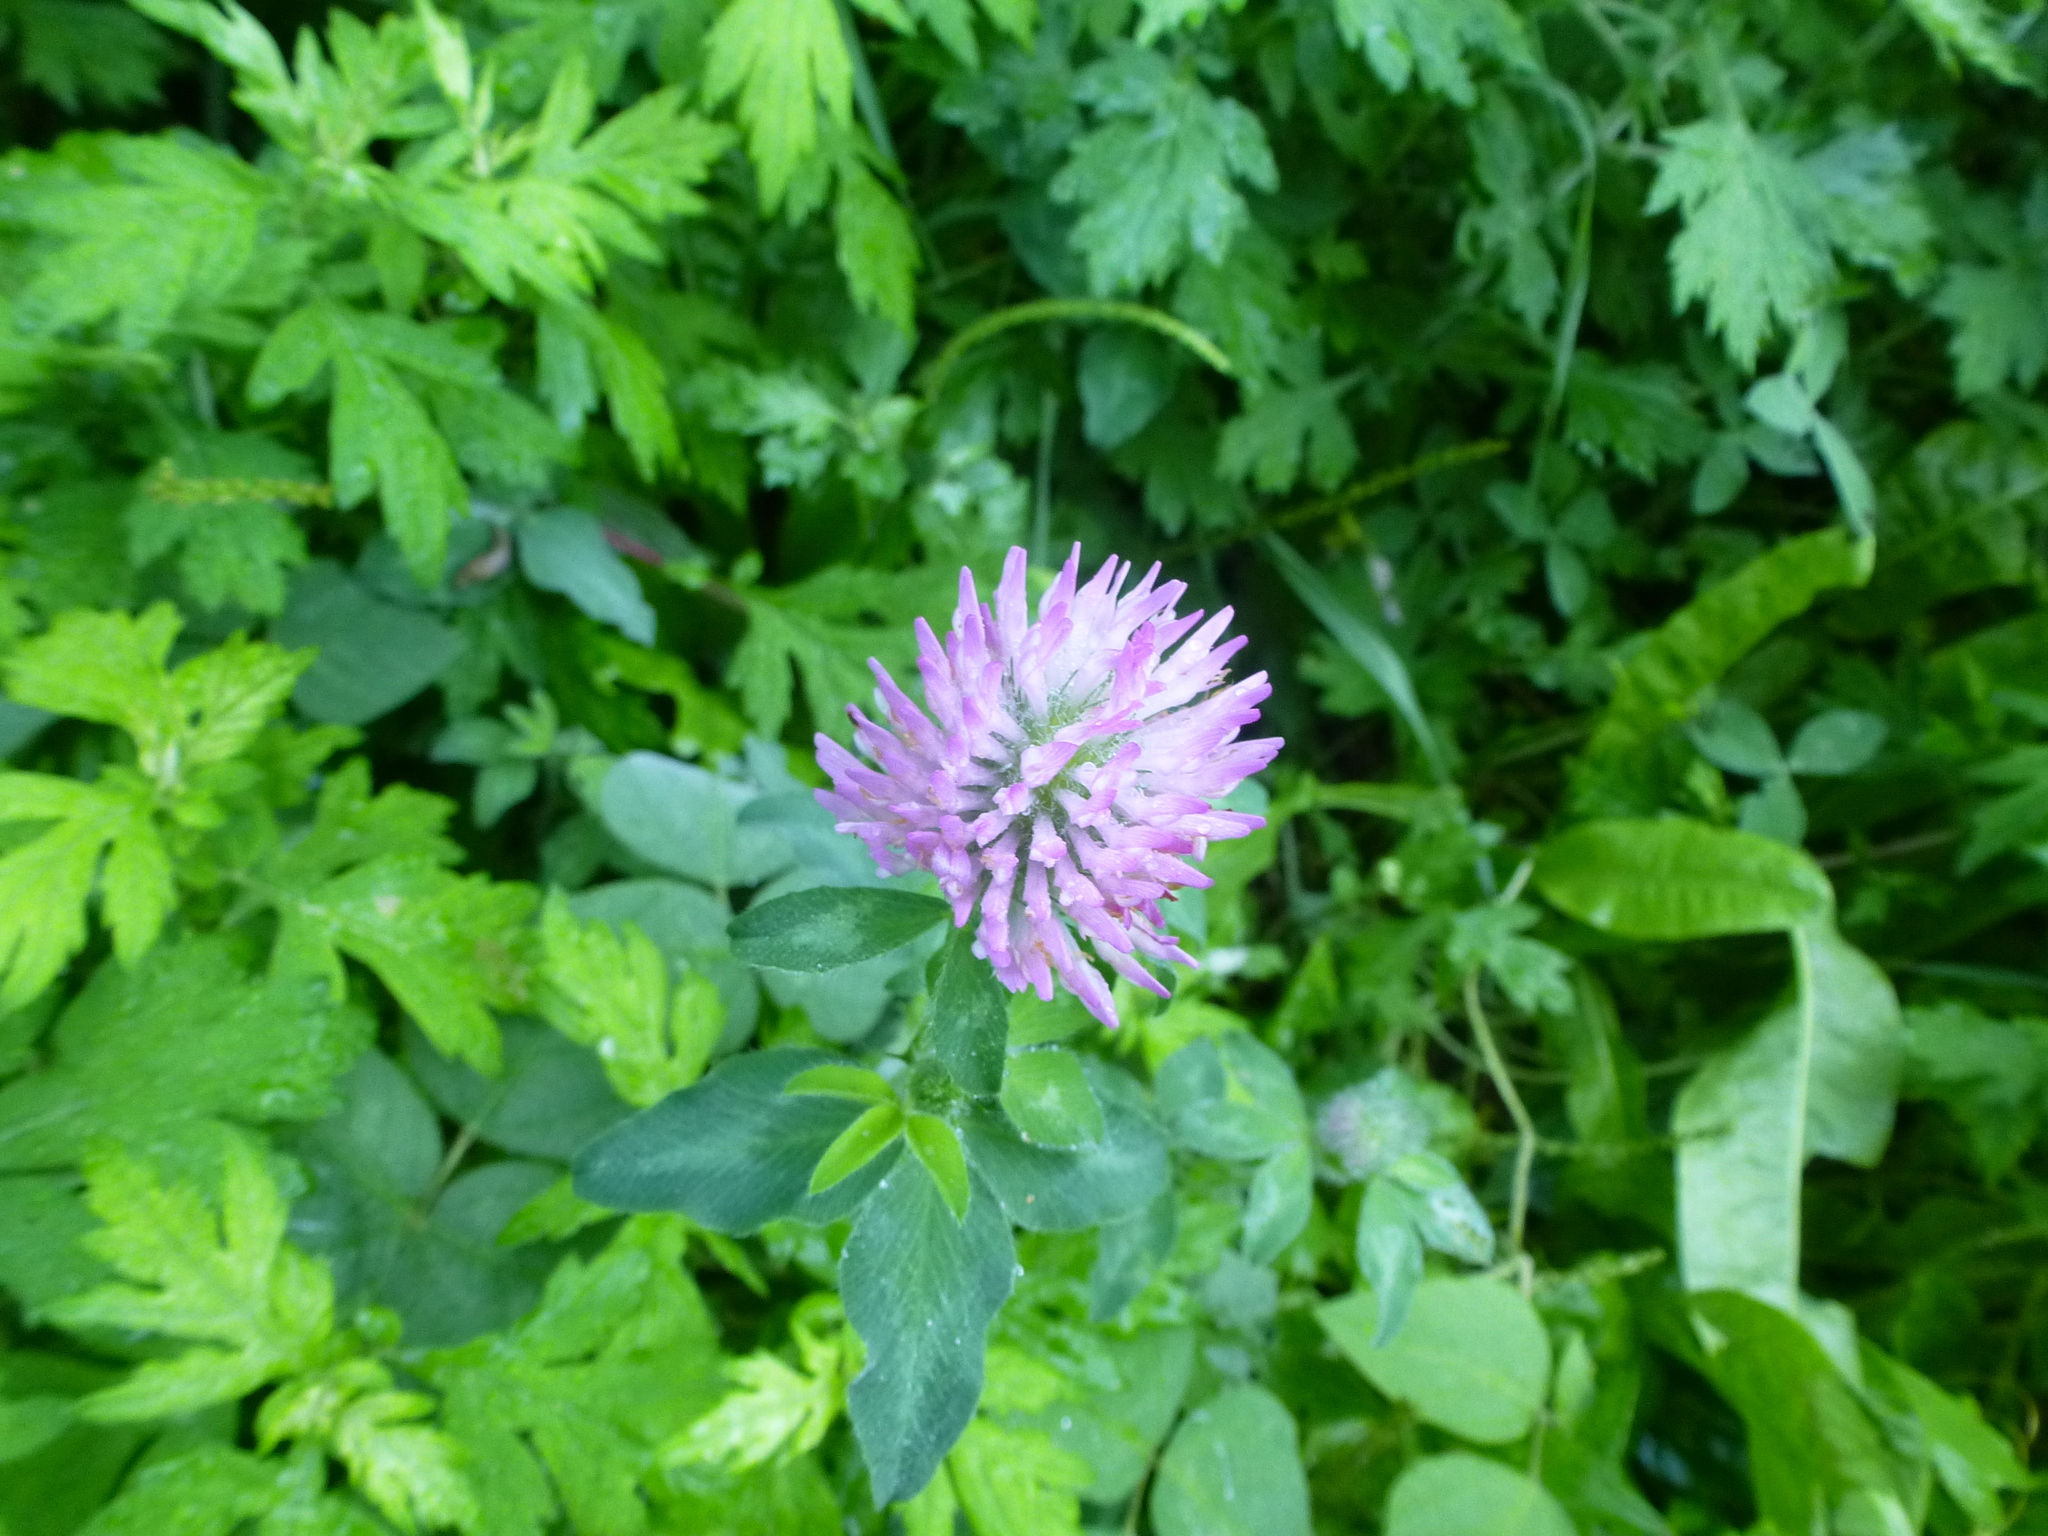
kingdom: Plantae
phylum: Tracheophyta
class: Magnoliopsida
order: Fabales
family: Fabaceae
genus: Trifolium
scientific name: Trifolium pratense
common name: Red clover
